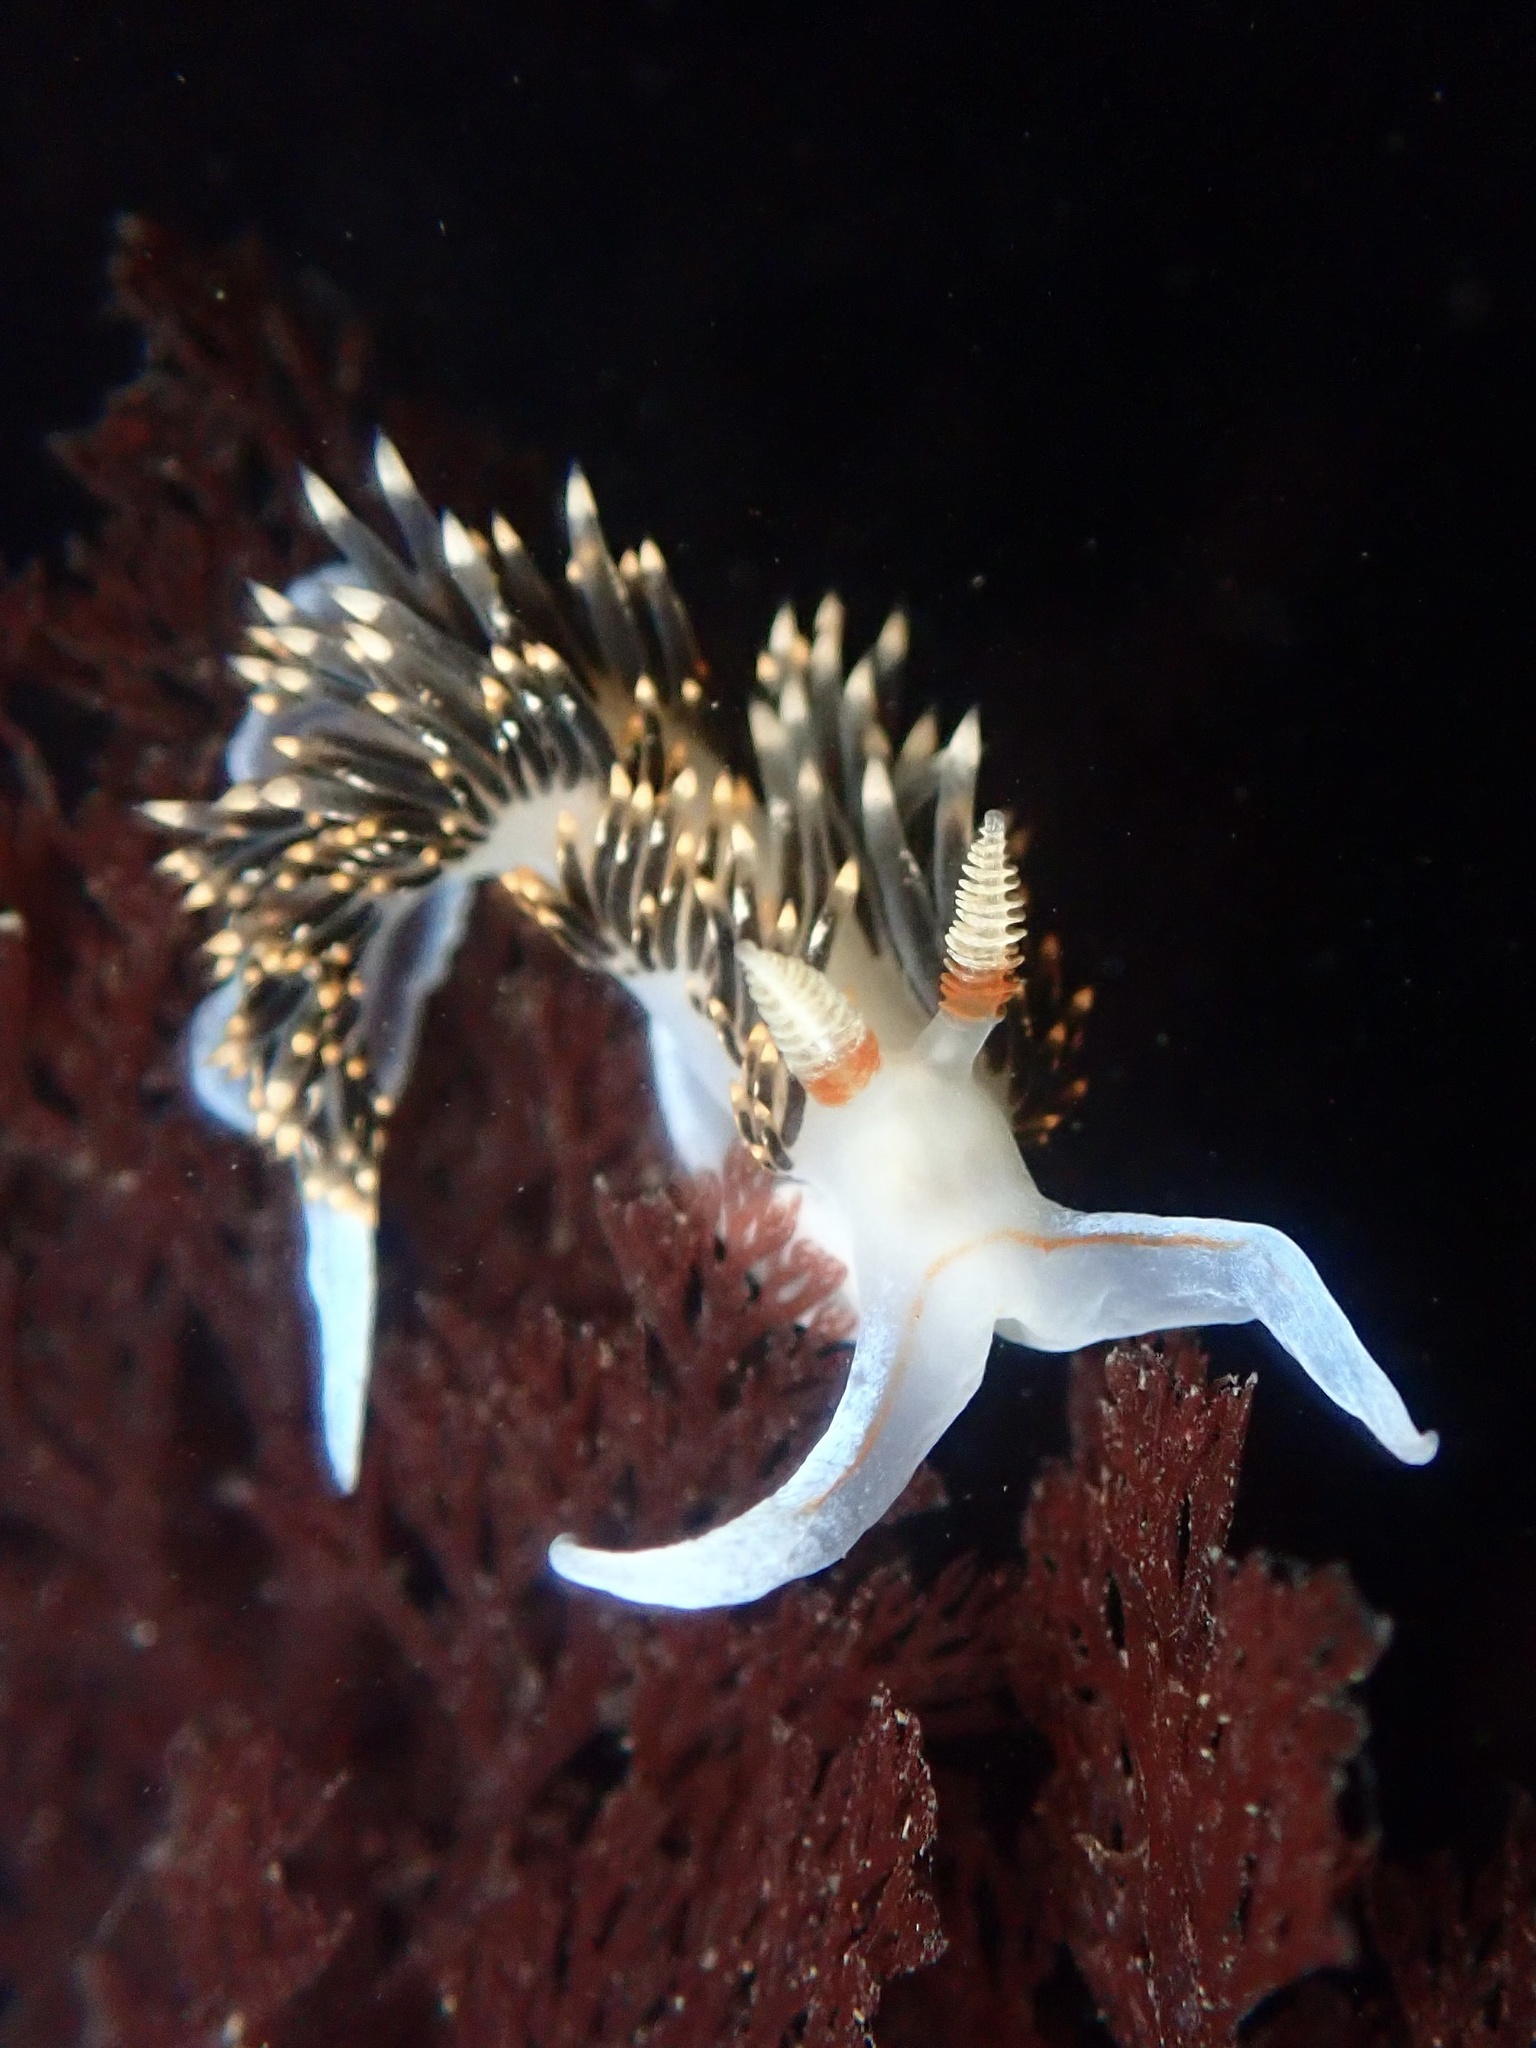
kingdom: Animalia
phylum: Mollusca
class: Gastropoda
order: Nudibranchia
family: Facelinidae
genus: Phidiana
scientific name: Phidiana hiltoni
